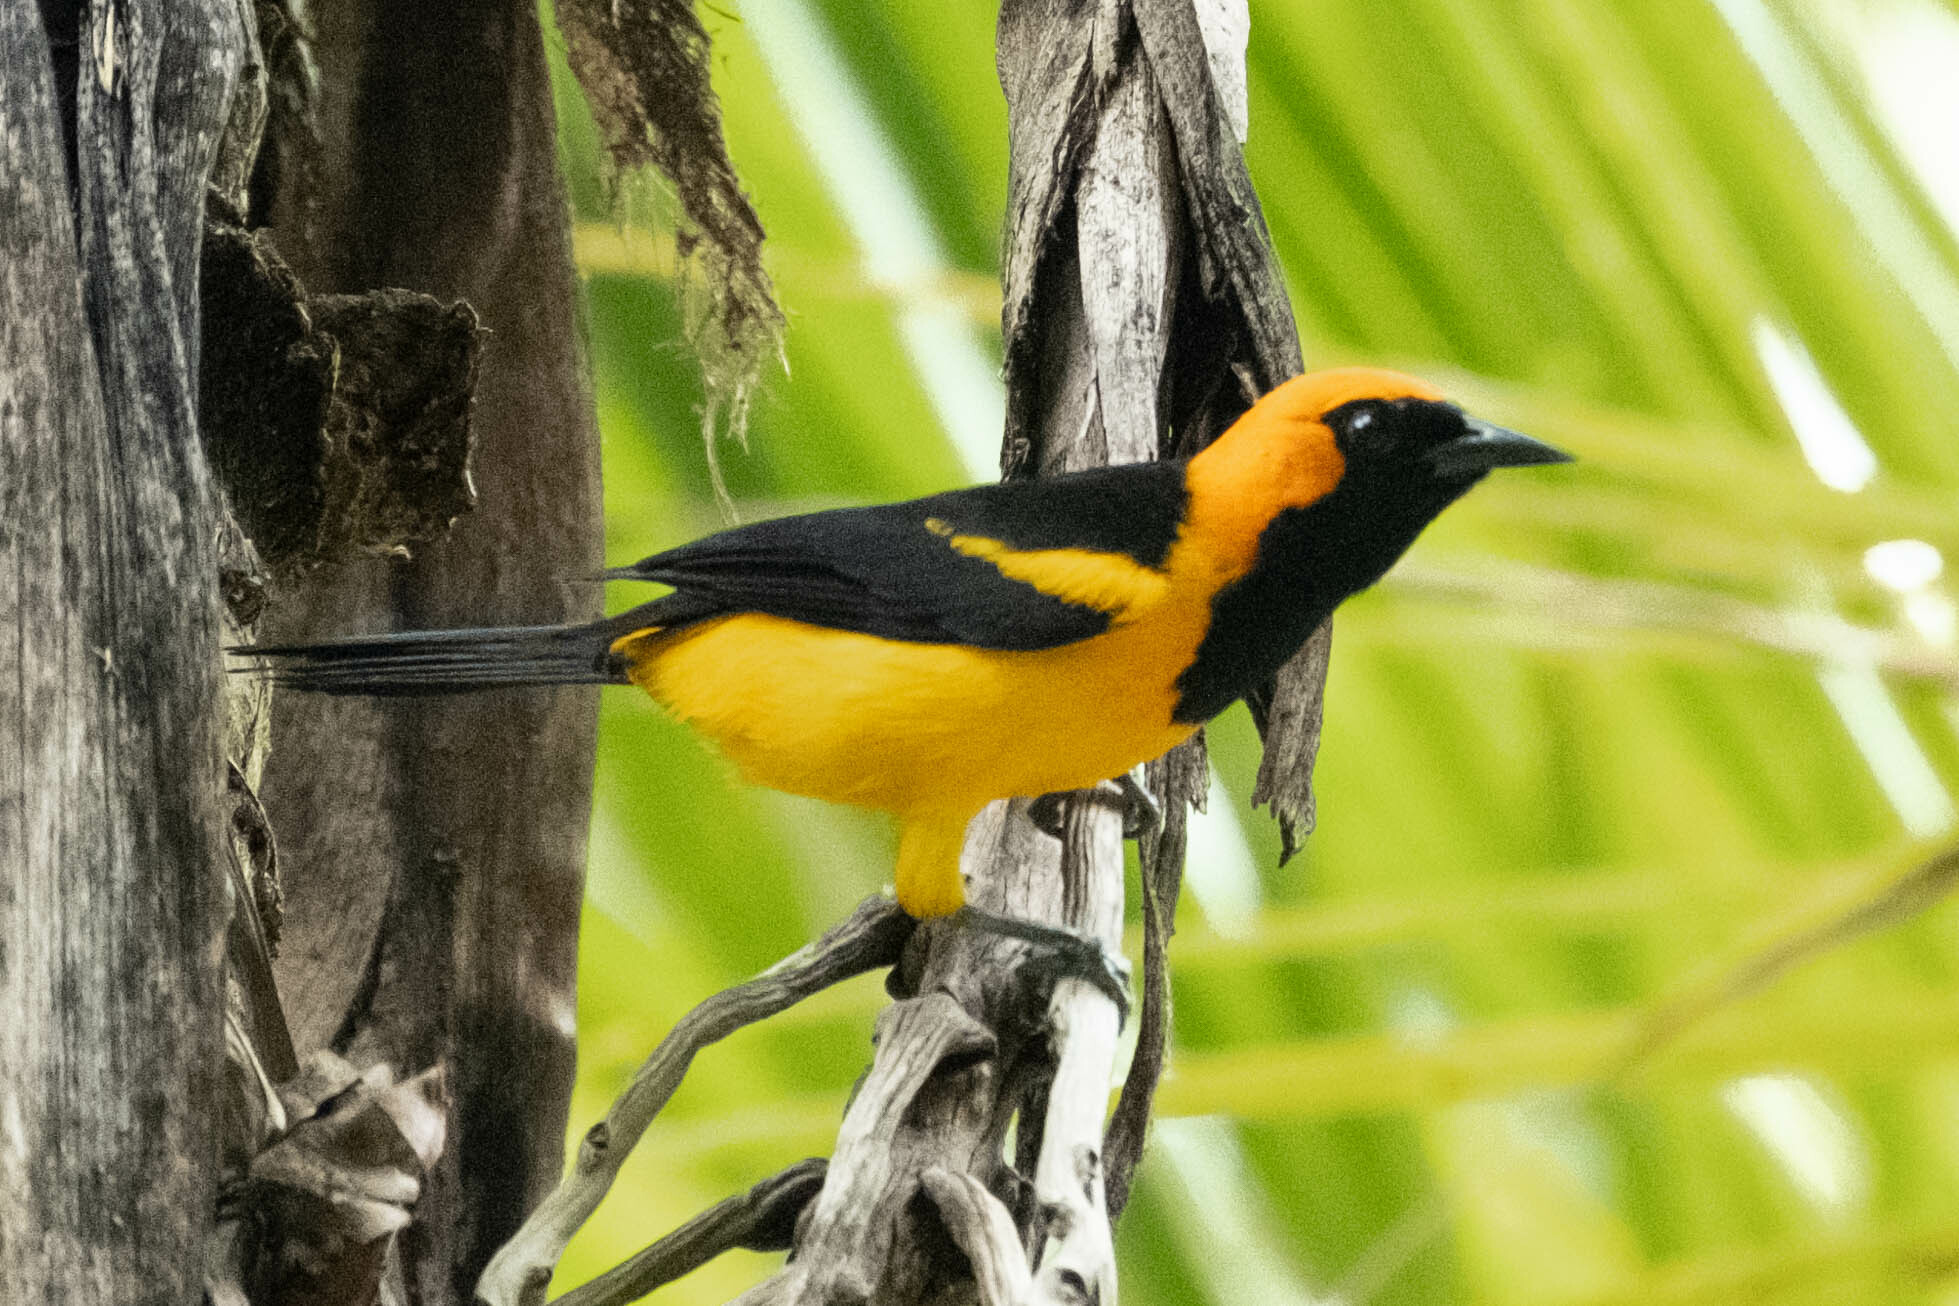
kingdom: Animalia
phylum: Chordata
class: Aves
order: Passeriformes
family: Icteridae
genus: Icterus
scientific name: Icterus auricapillus
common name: Orange-crowned oriole
